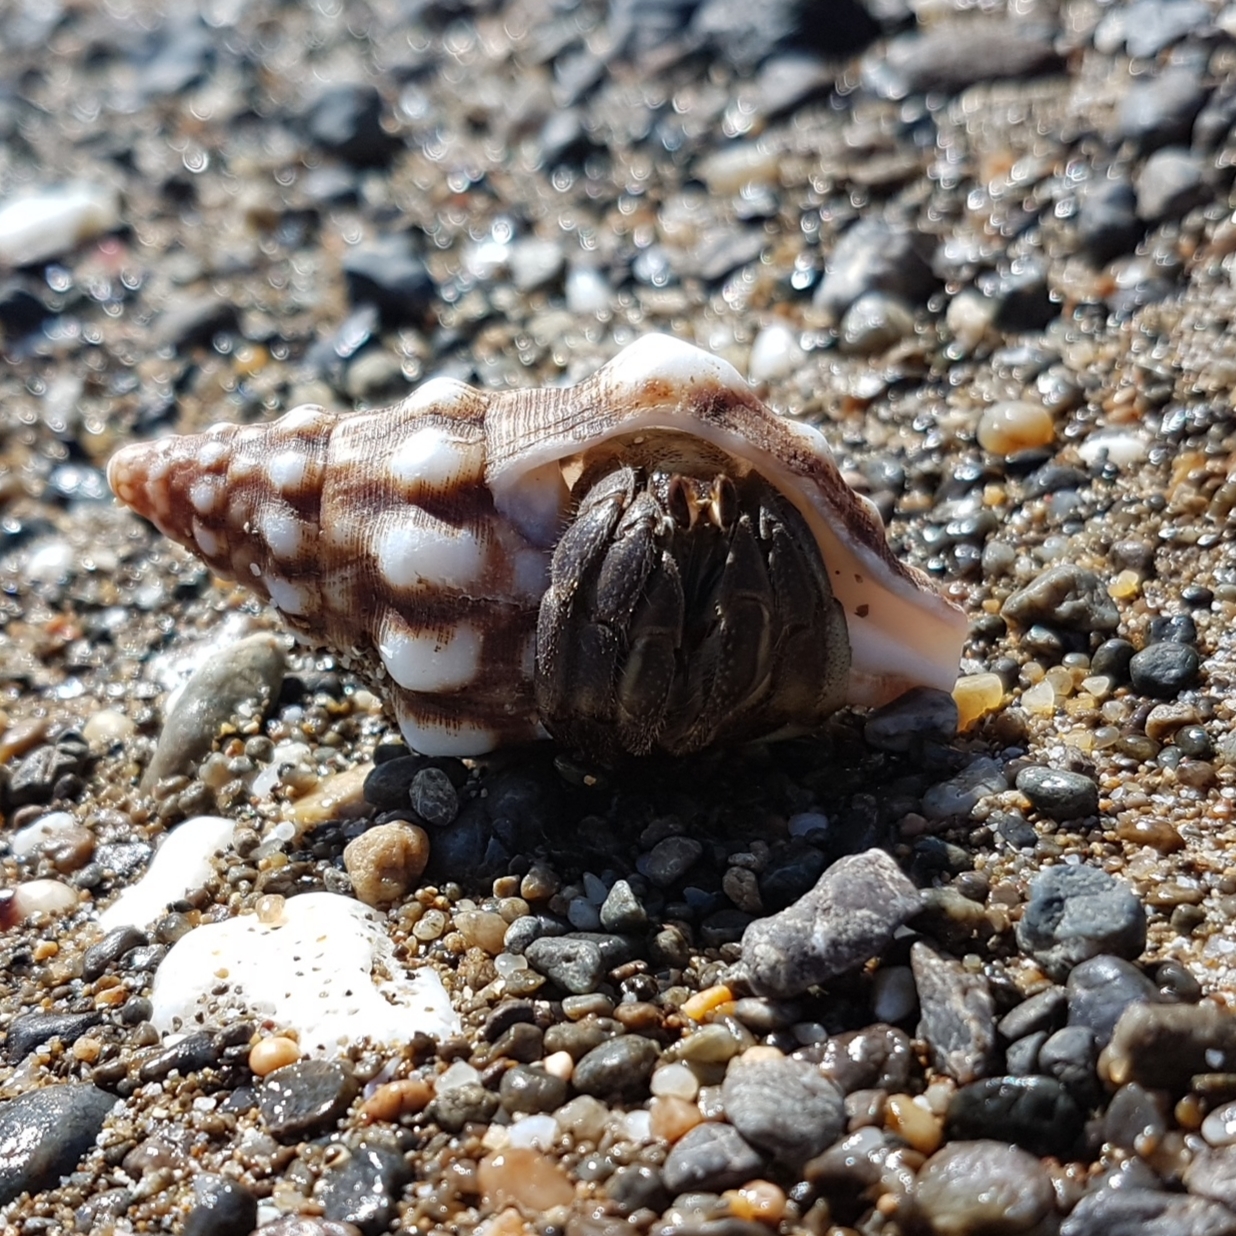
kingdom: Animalia
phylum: Arthropoda
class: Malacostraca
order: Decapoda
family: Coenobitidae
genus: Coenobita
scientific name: Coenobita compressus
